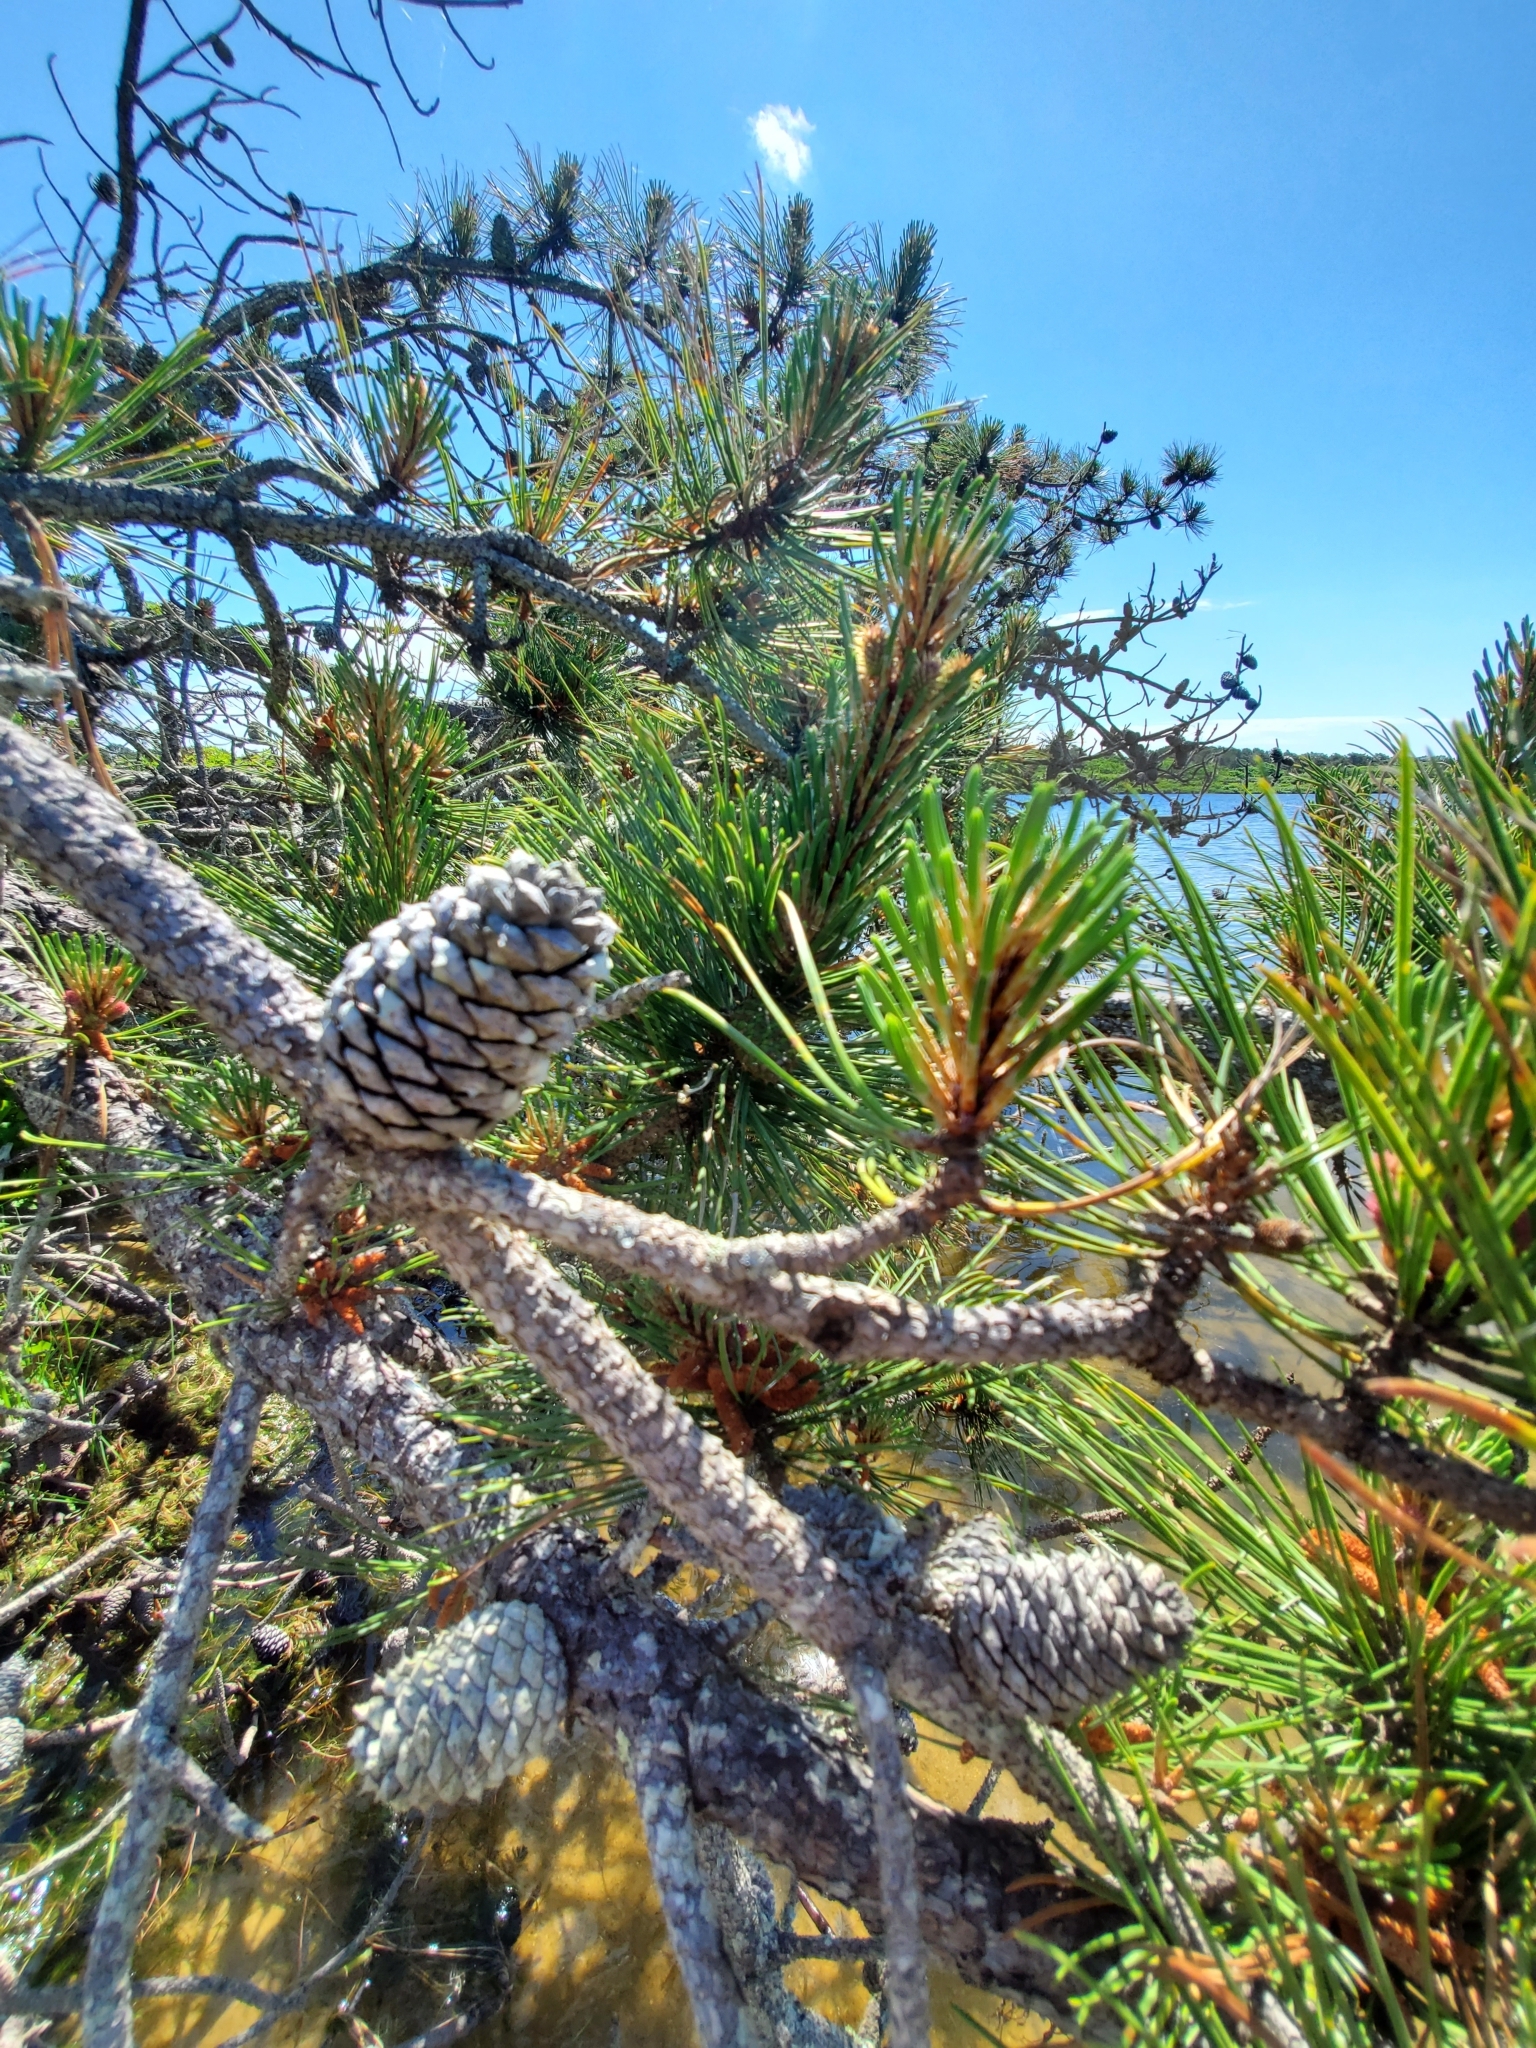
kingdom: Plantae
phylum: Tracheophyta
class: Pinopsida
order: Pinales
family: Pinaceae
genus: Pinus
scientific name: Pinus rigida
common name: Pitch pine
